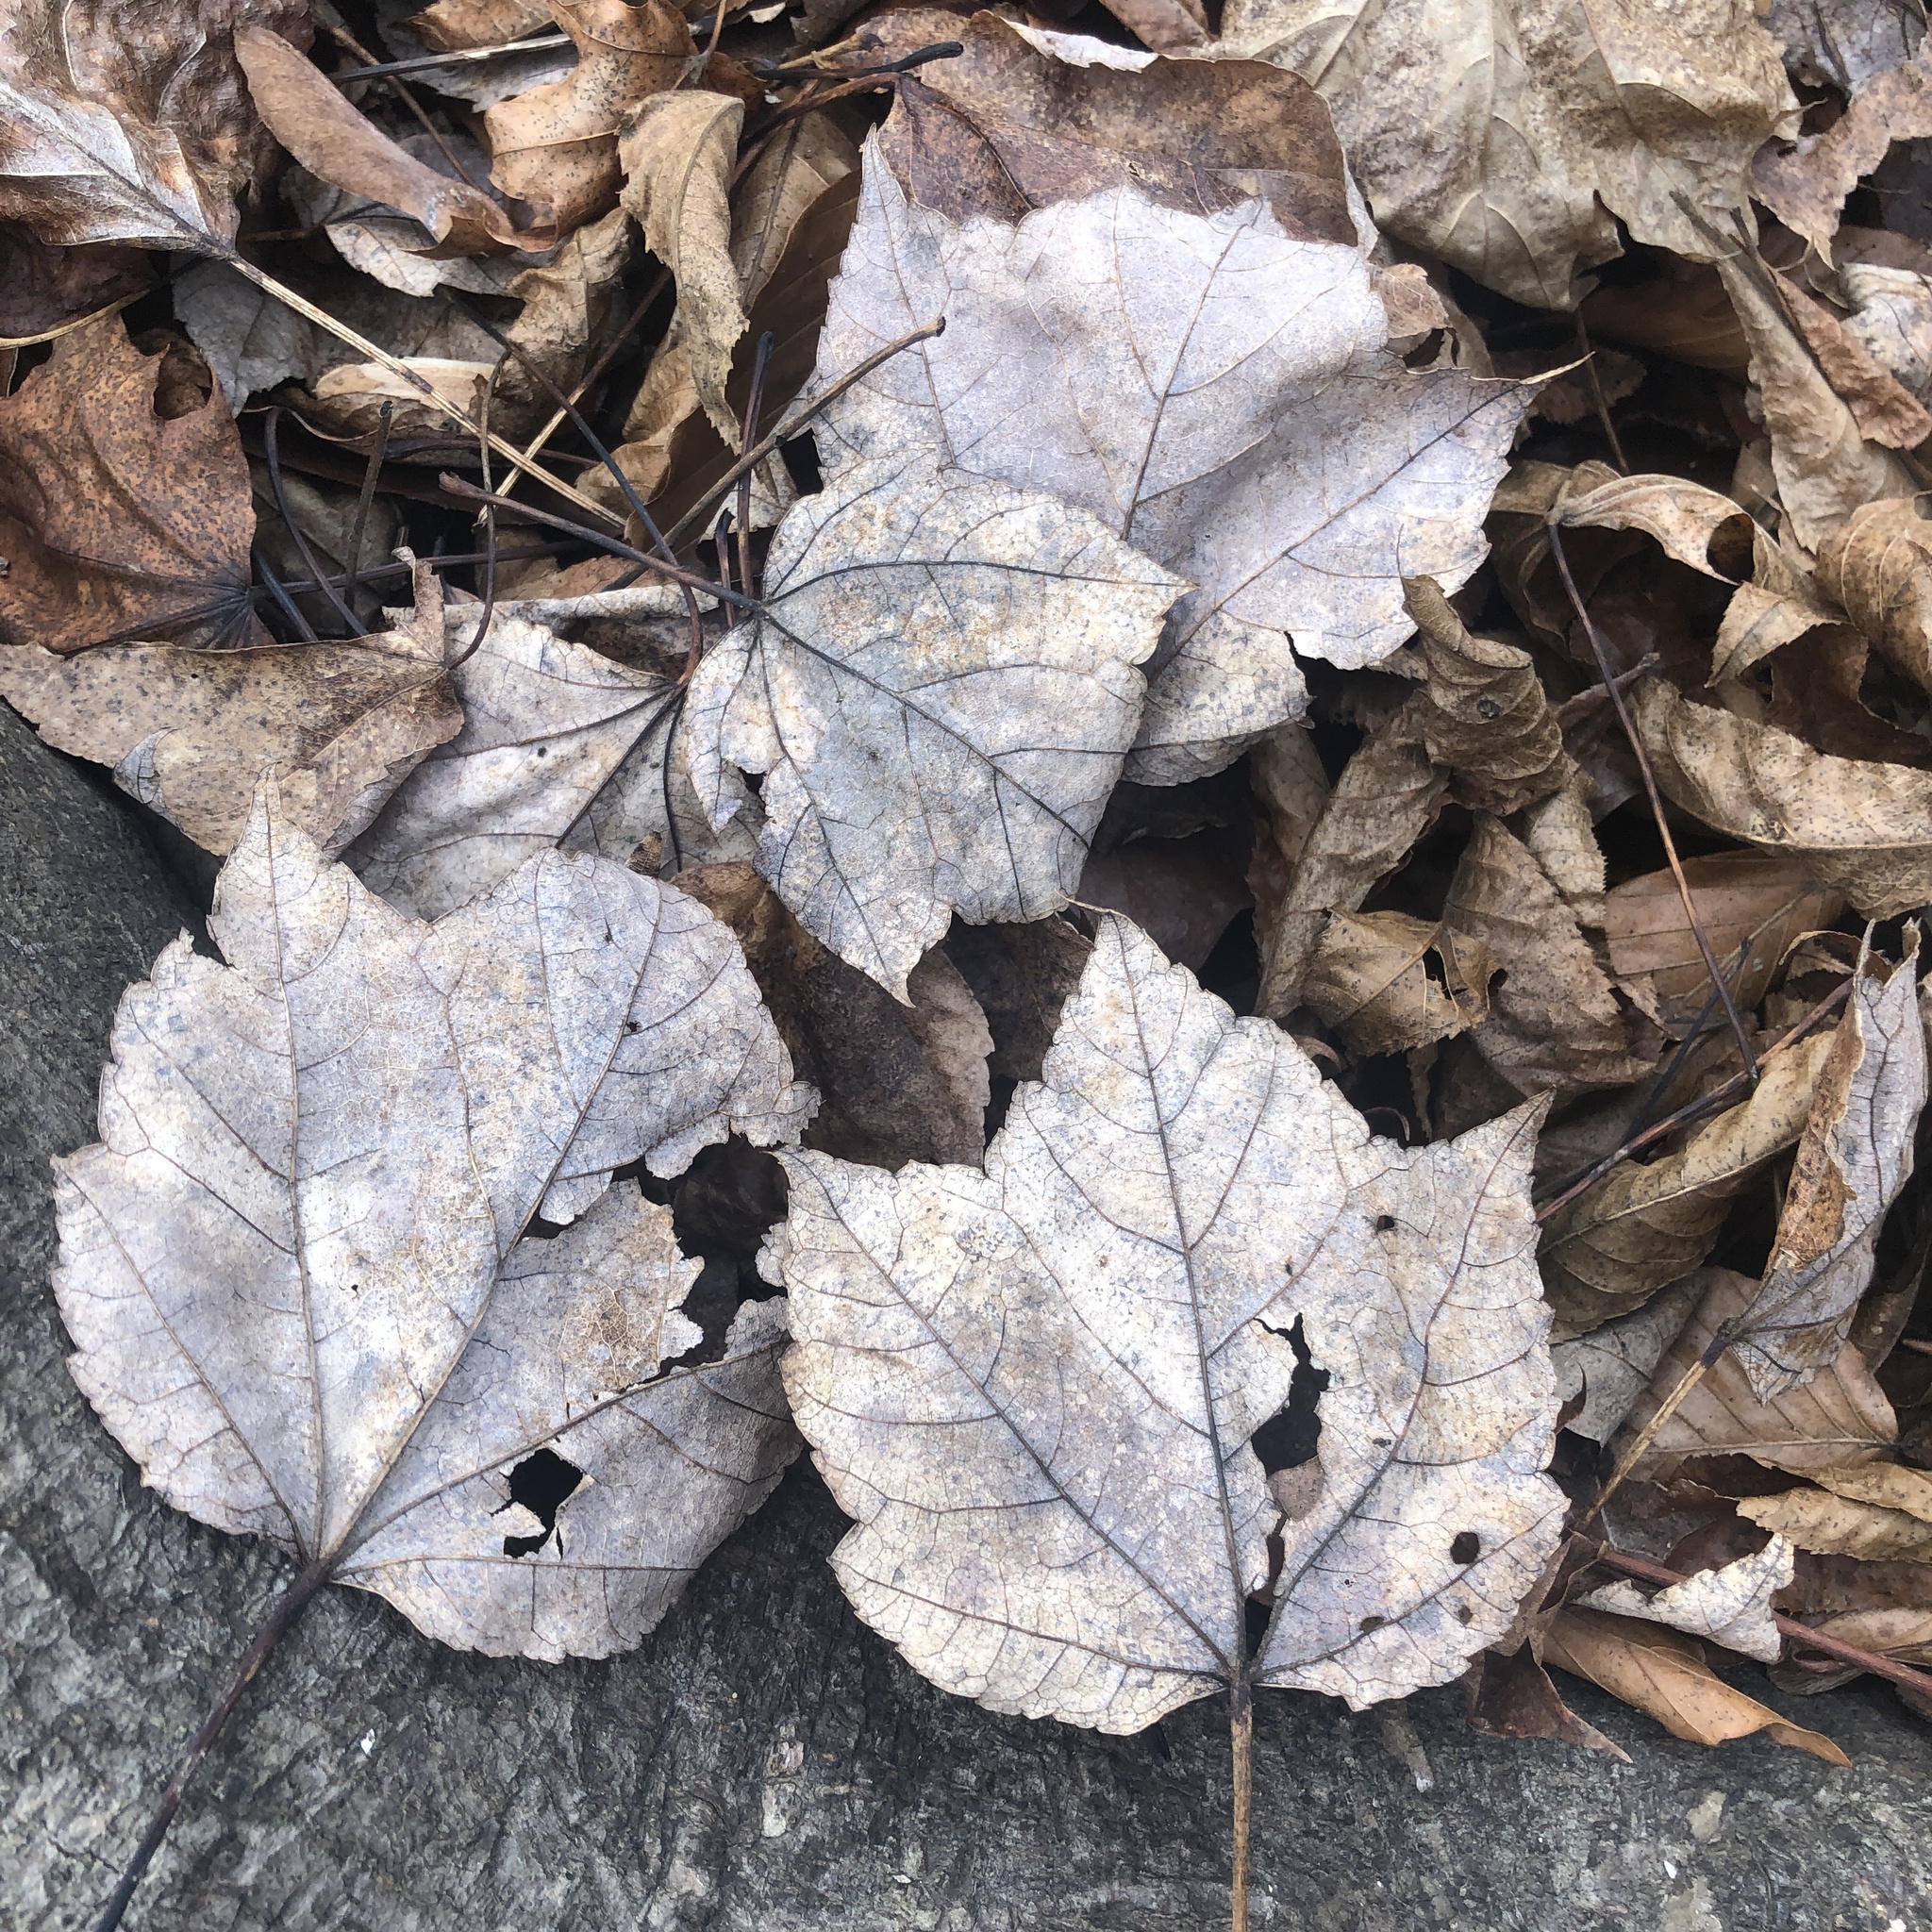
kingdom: Plantae
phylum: Tracheophyta
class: Magnoliopsida
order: Sapindales
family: Sapindaceae
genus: Acer
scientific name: Acer rubrum
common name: Red maple
